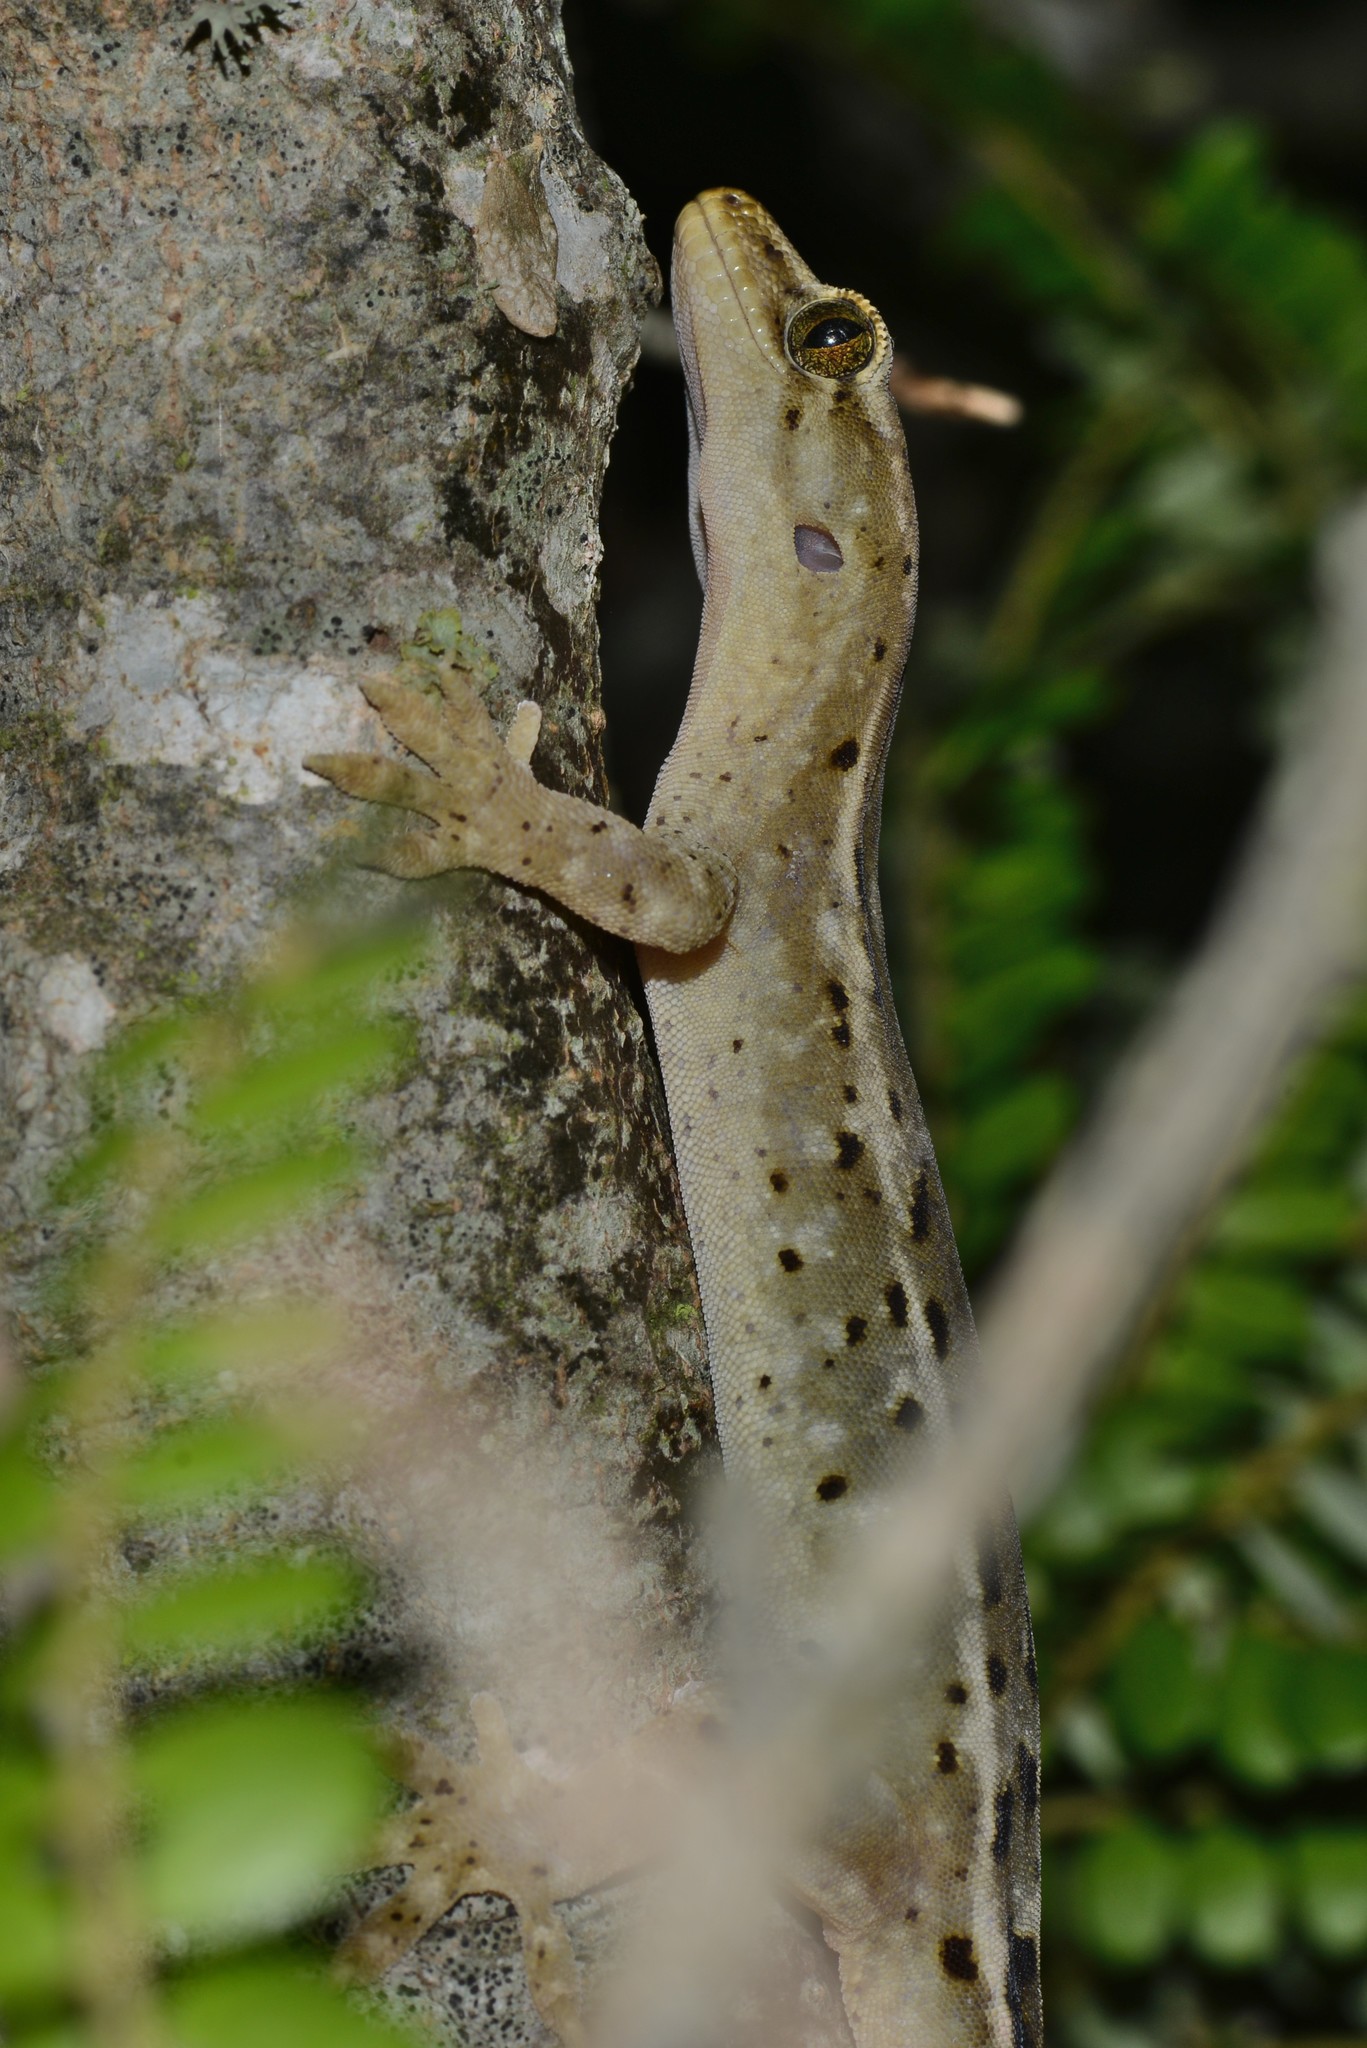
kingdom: Animalia
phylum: Chordata
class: Squamata
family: Diplodactylidae
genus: Woodworthia
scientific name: Woodworthia brunnea
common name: Canterbury gecko
